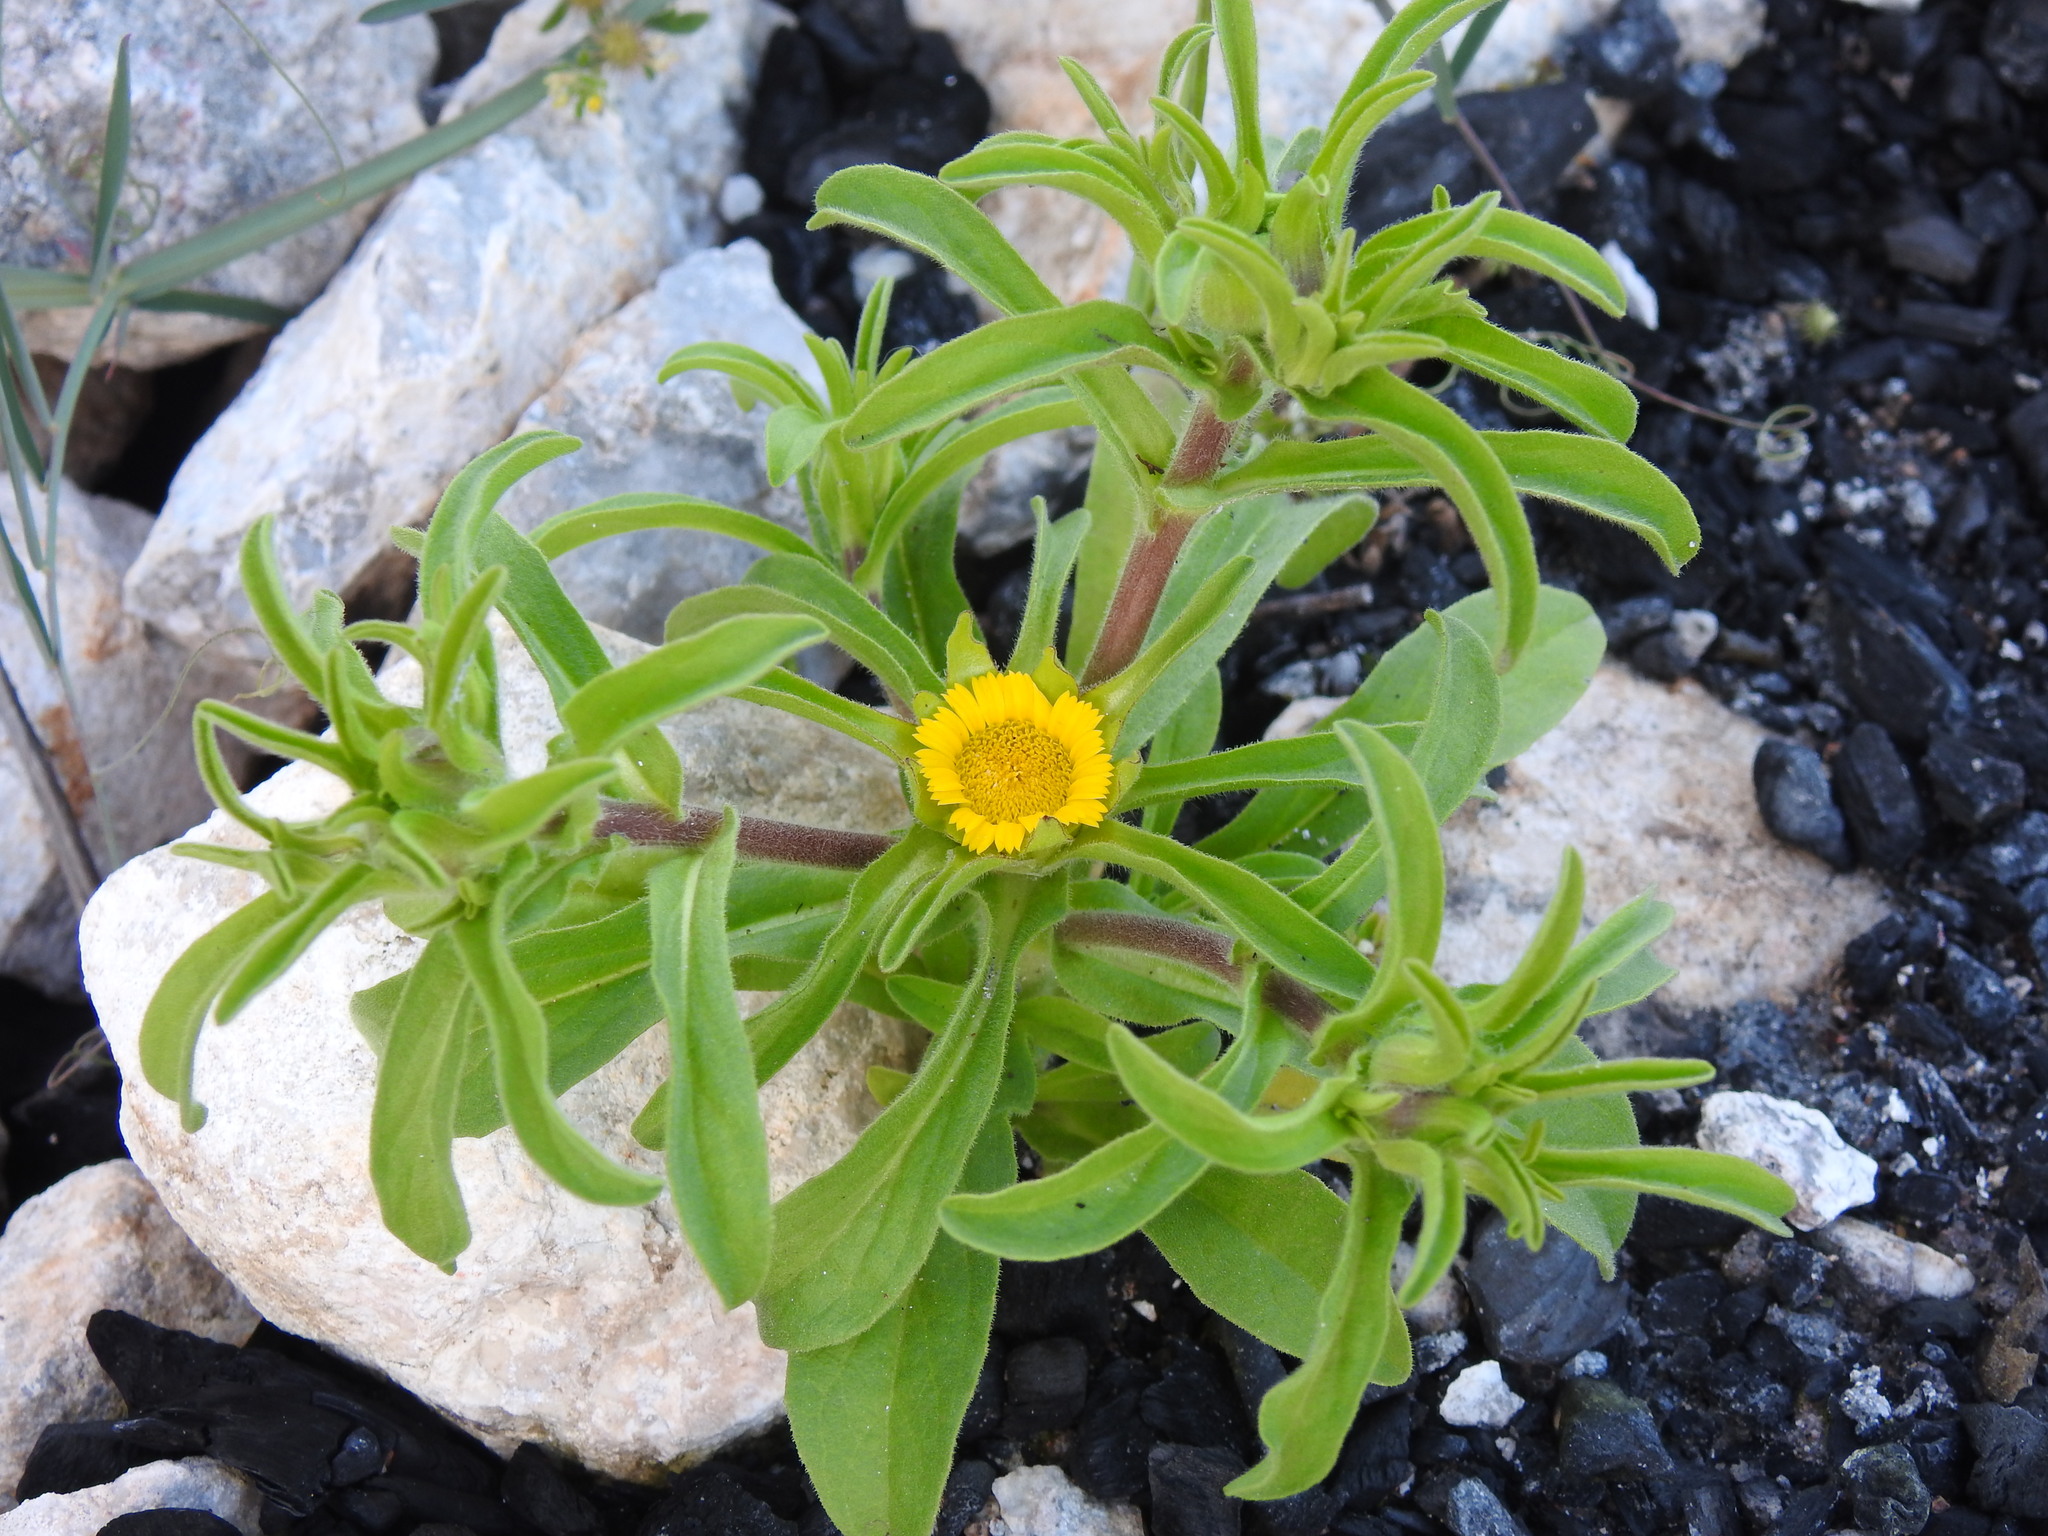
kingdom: Plantae
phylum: Tracheophyta
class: Magnoliopsida
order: Asterales
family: Asteraceae
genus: Asteriscus
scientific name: Asteriscus aquaticus
